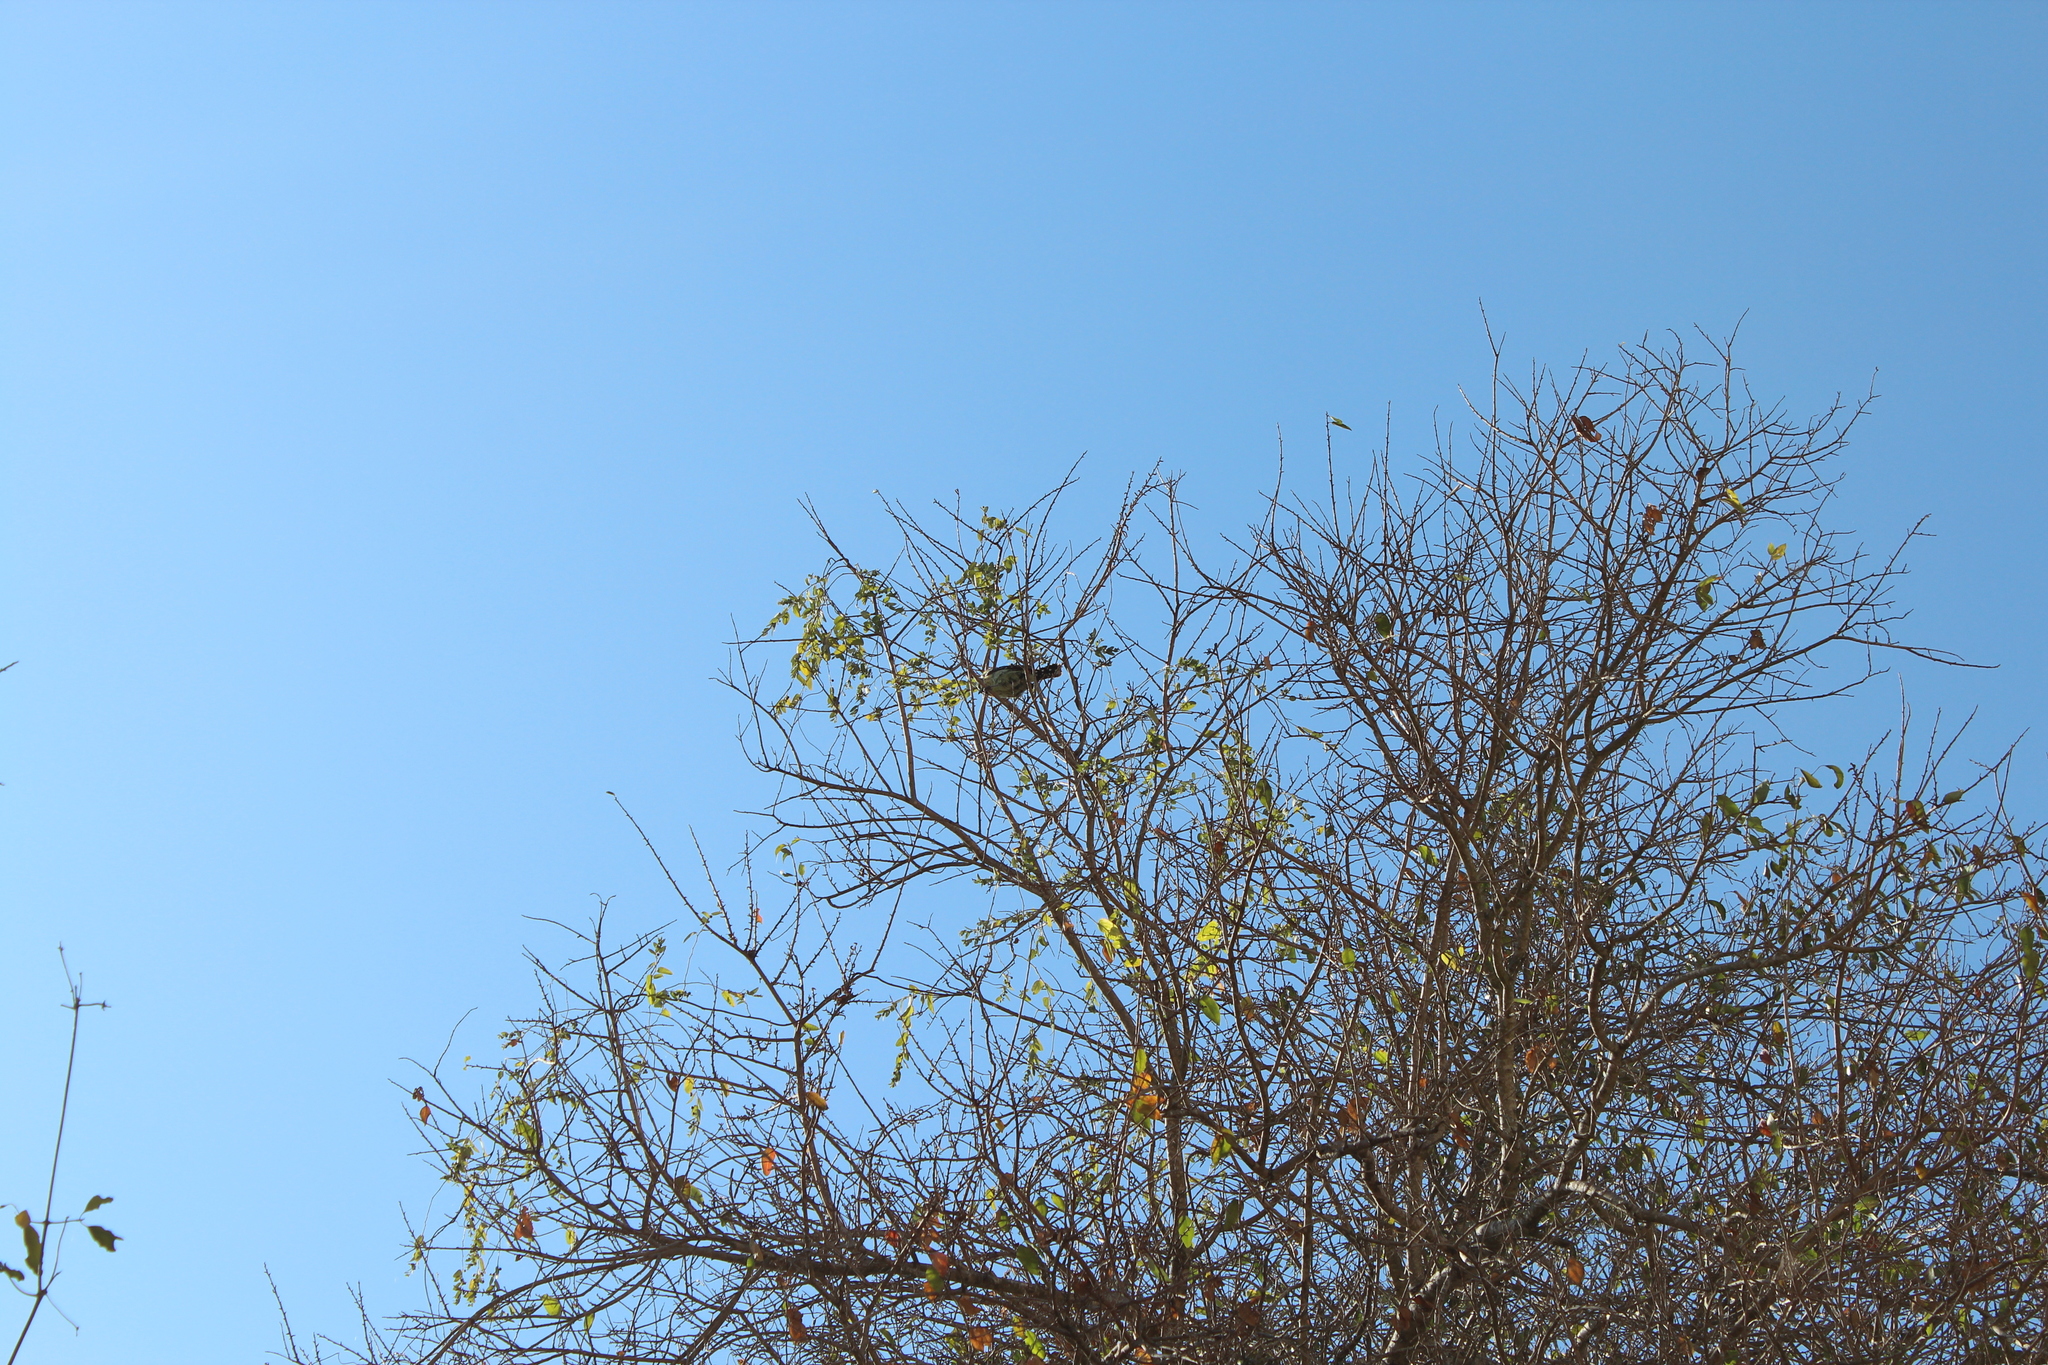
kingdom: Animalia
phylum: Chordata
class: Aves
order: Piciformes
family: Lybiidae
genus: Trachyphonus
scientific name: Trachyphonus vaillantii
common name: Crested barbet
